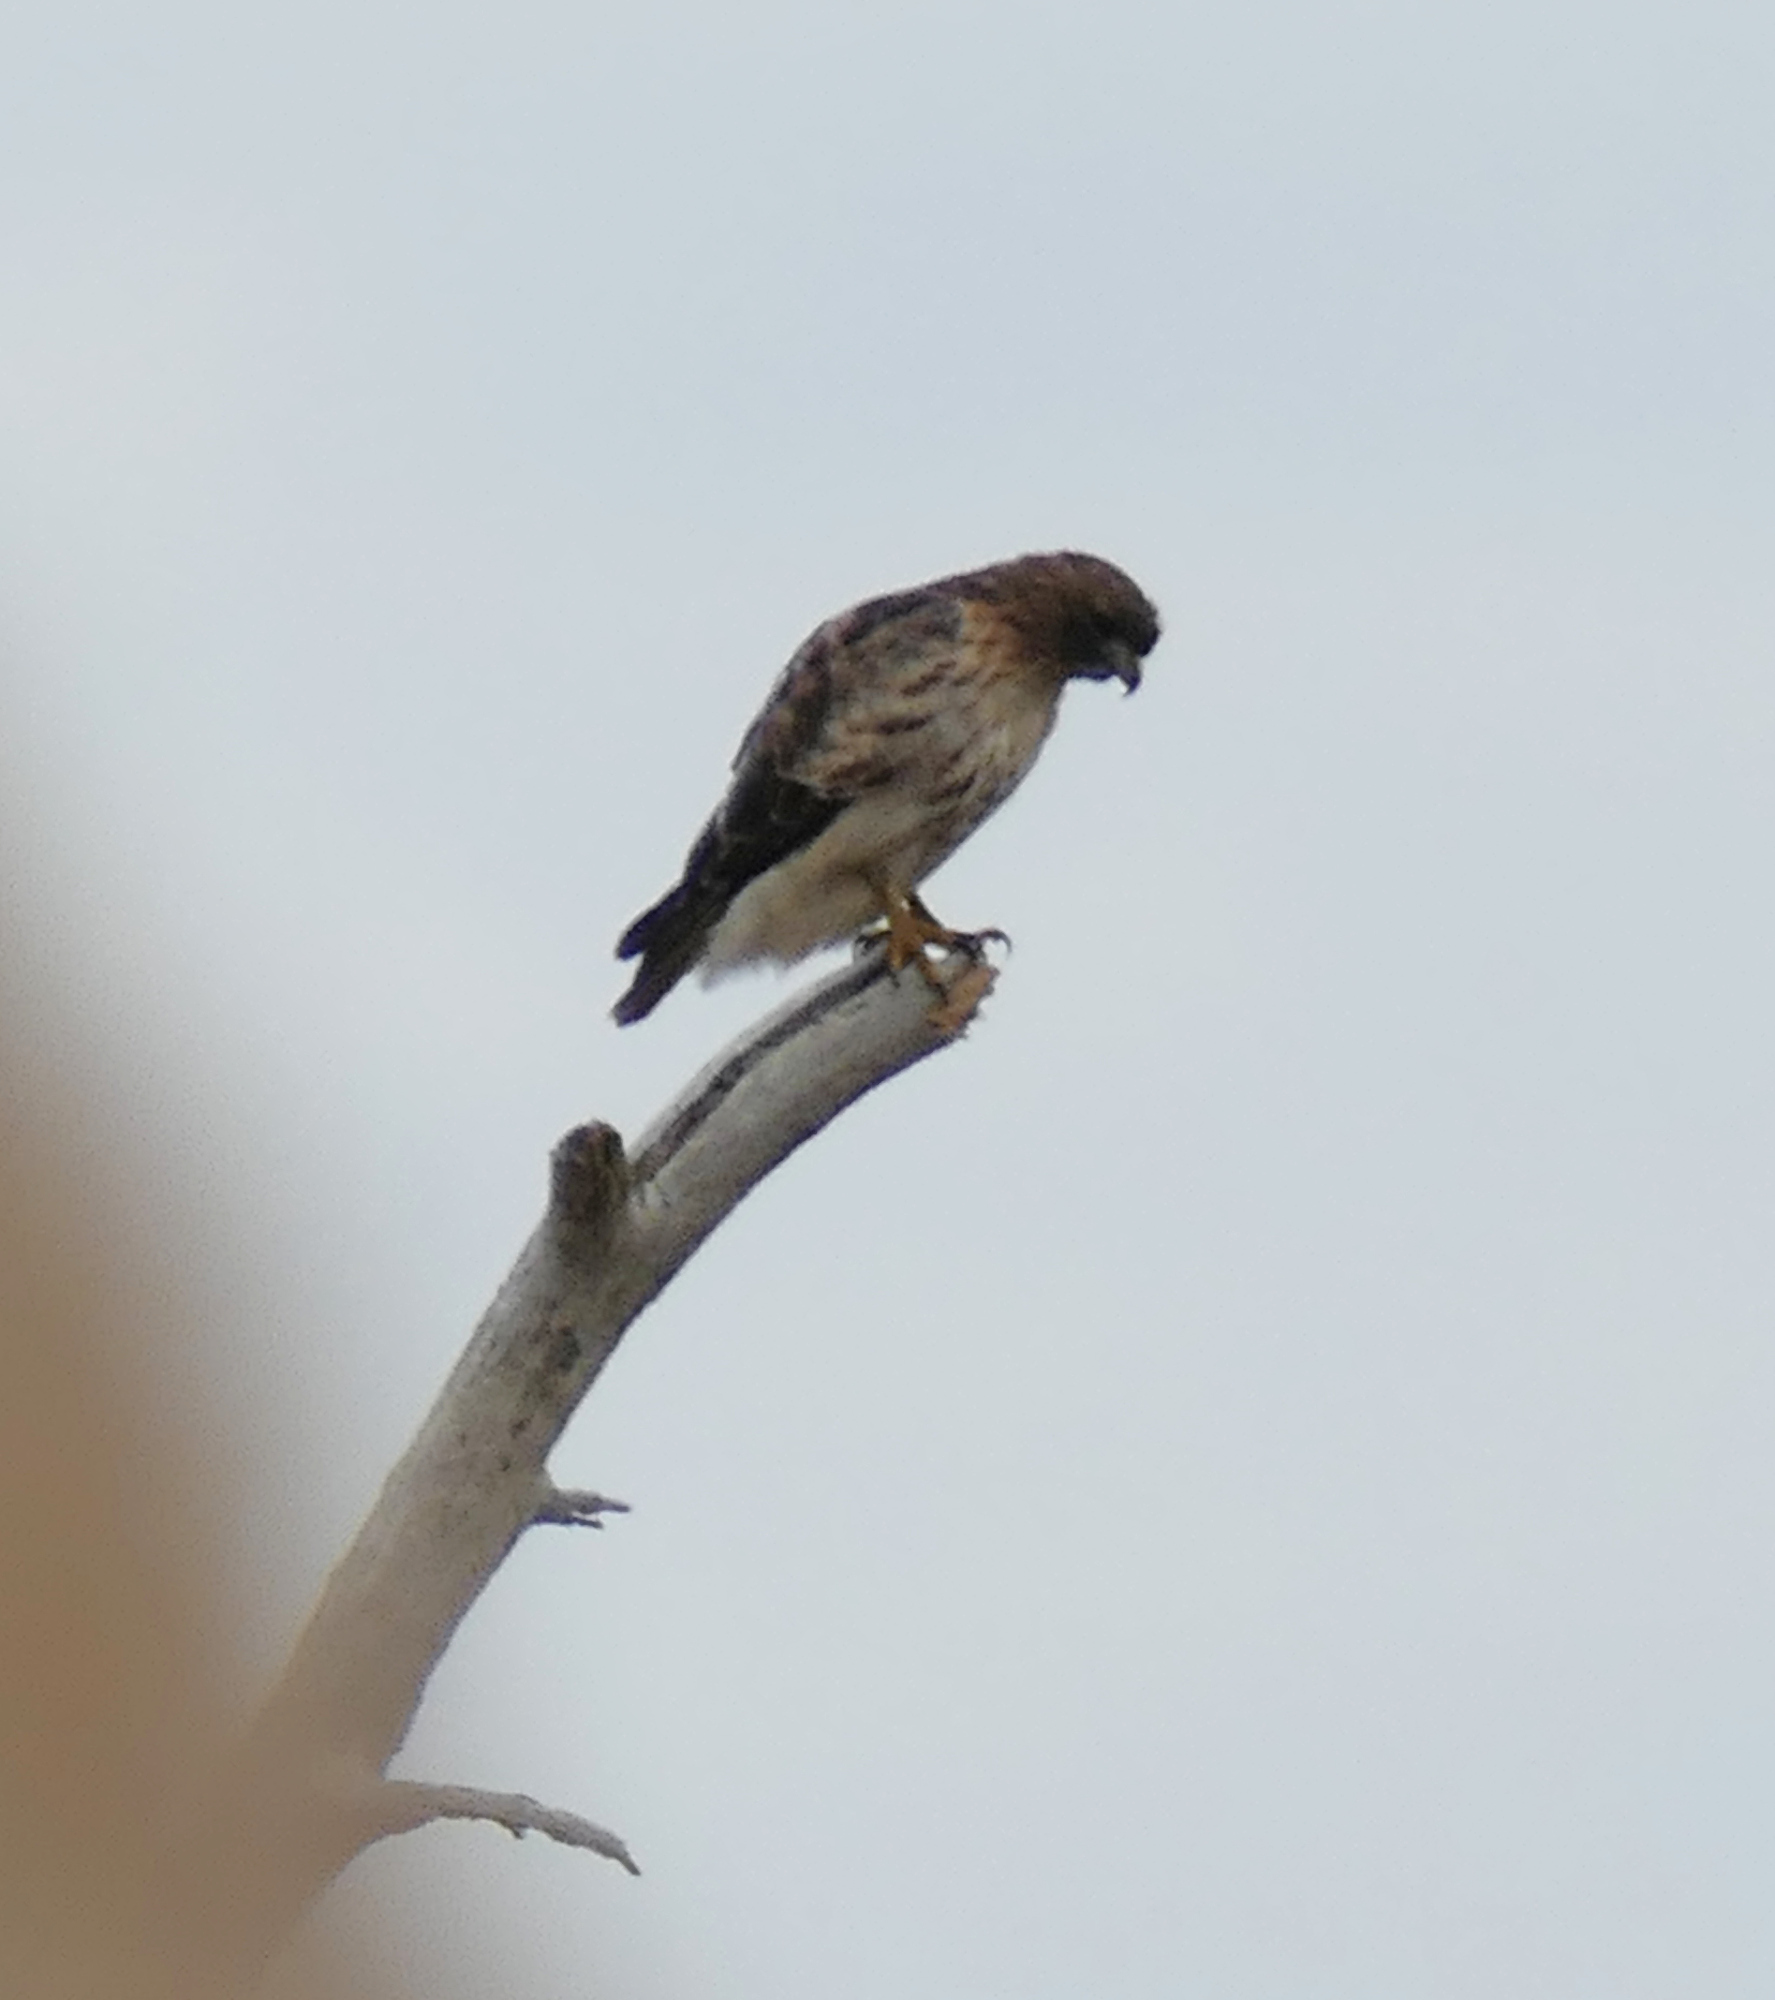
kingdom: Animalia
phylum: Chordata
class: Aves
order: Accipitriformes
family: Accipitridae
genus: Buteo
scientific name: Buteo jamaicensis
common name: Red-tailed hawk
